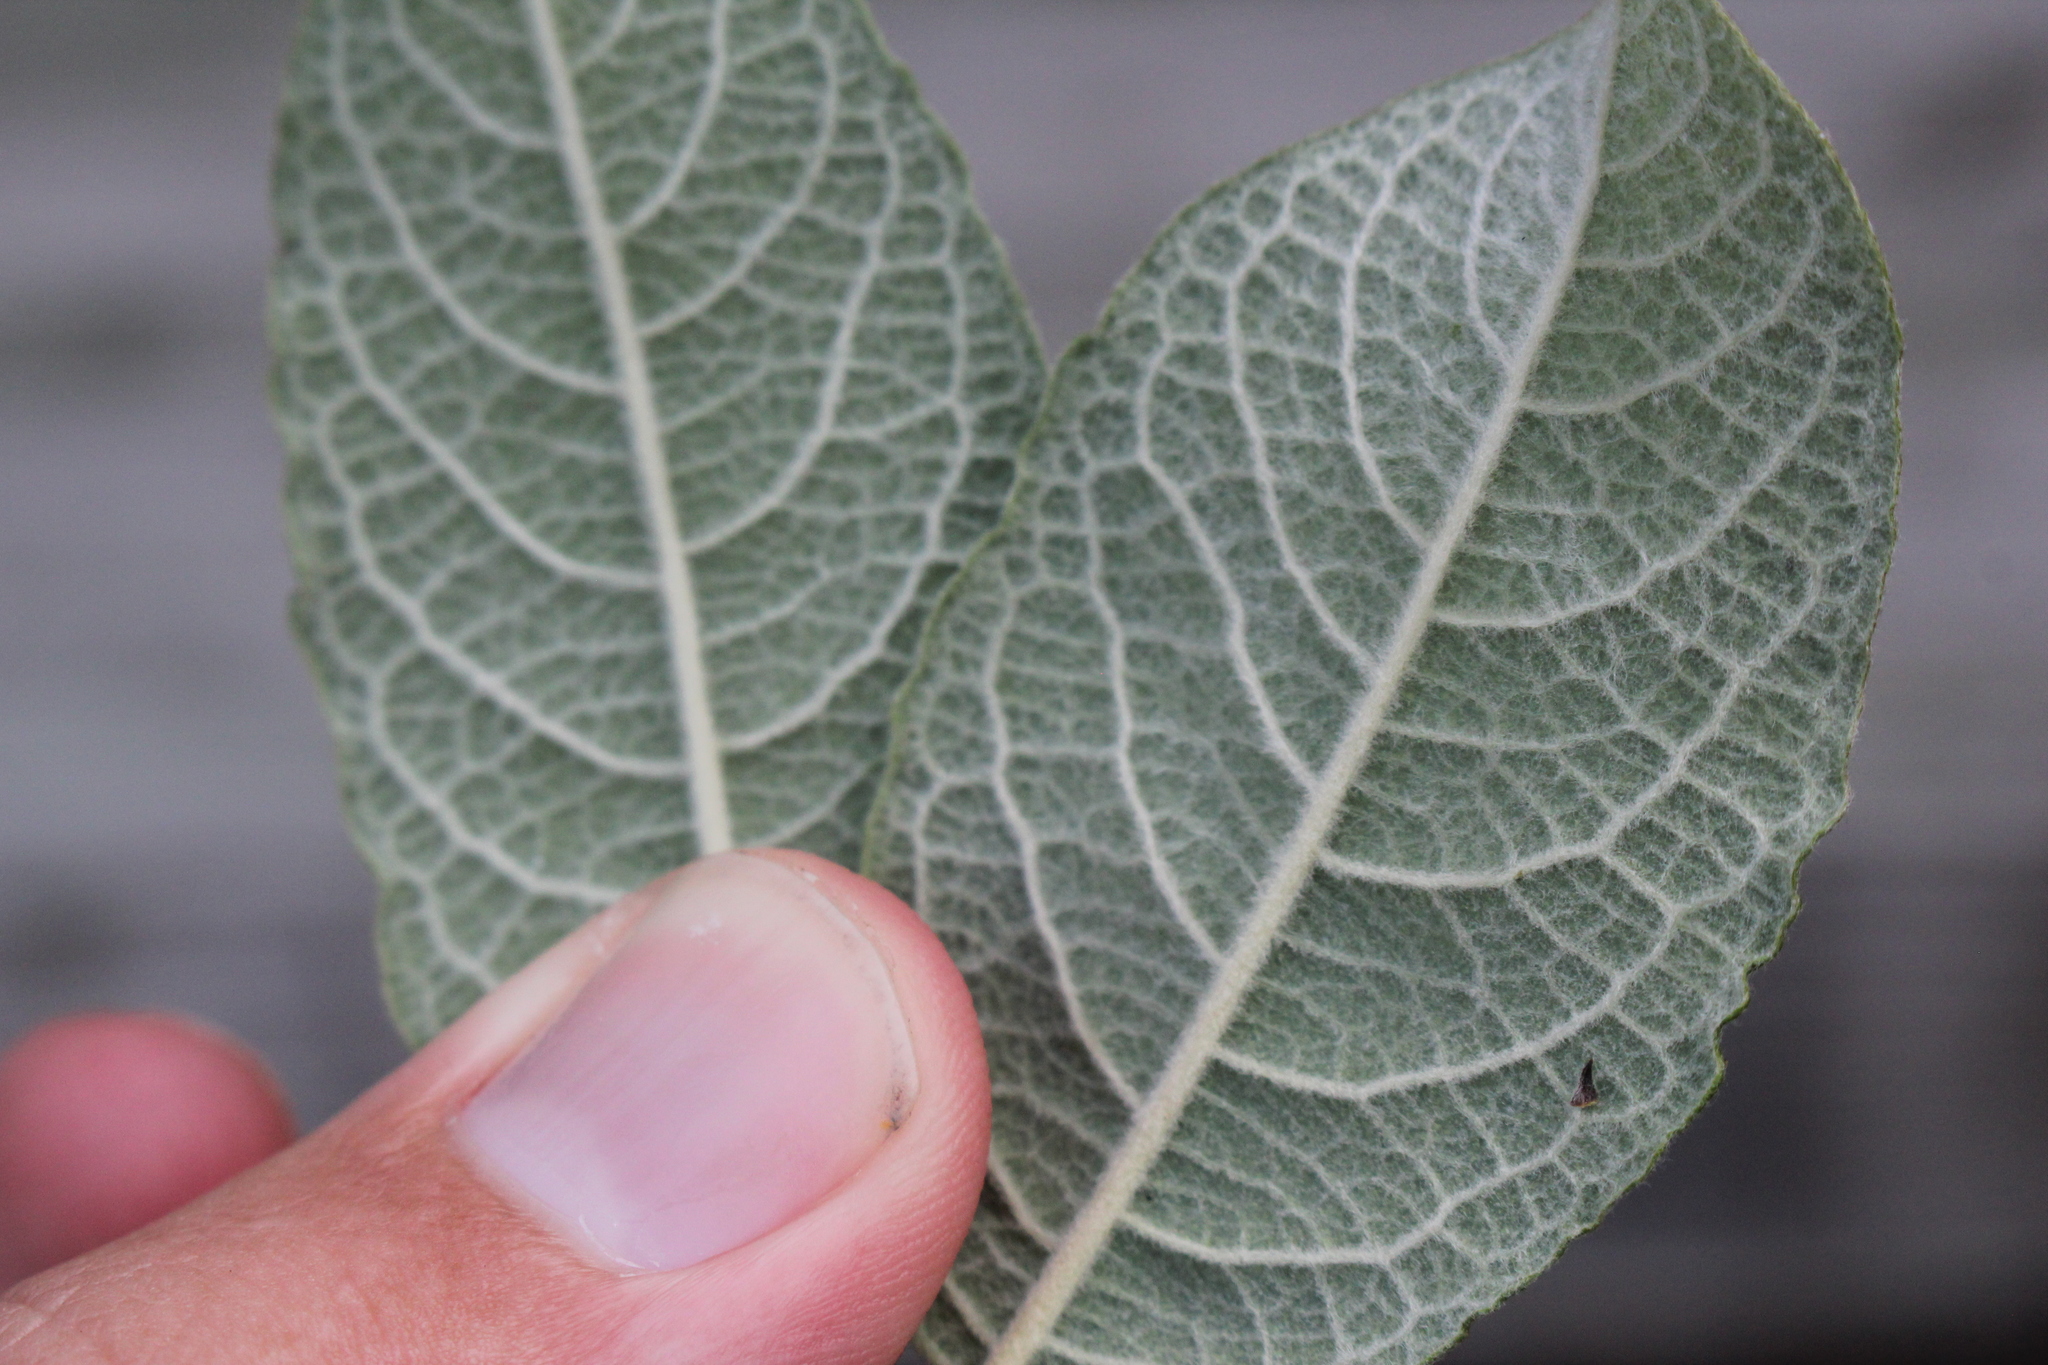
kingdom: Plantae
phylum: Tracheophyta
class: Magnoliopsida
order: Malpighiales
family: Salicaceae
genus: Salix
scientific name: Salix bebbiana
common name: Bebb's willow
